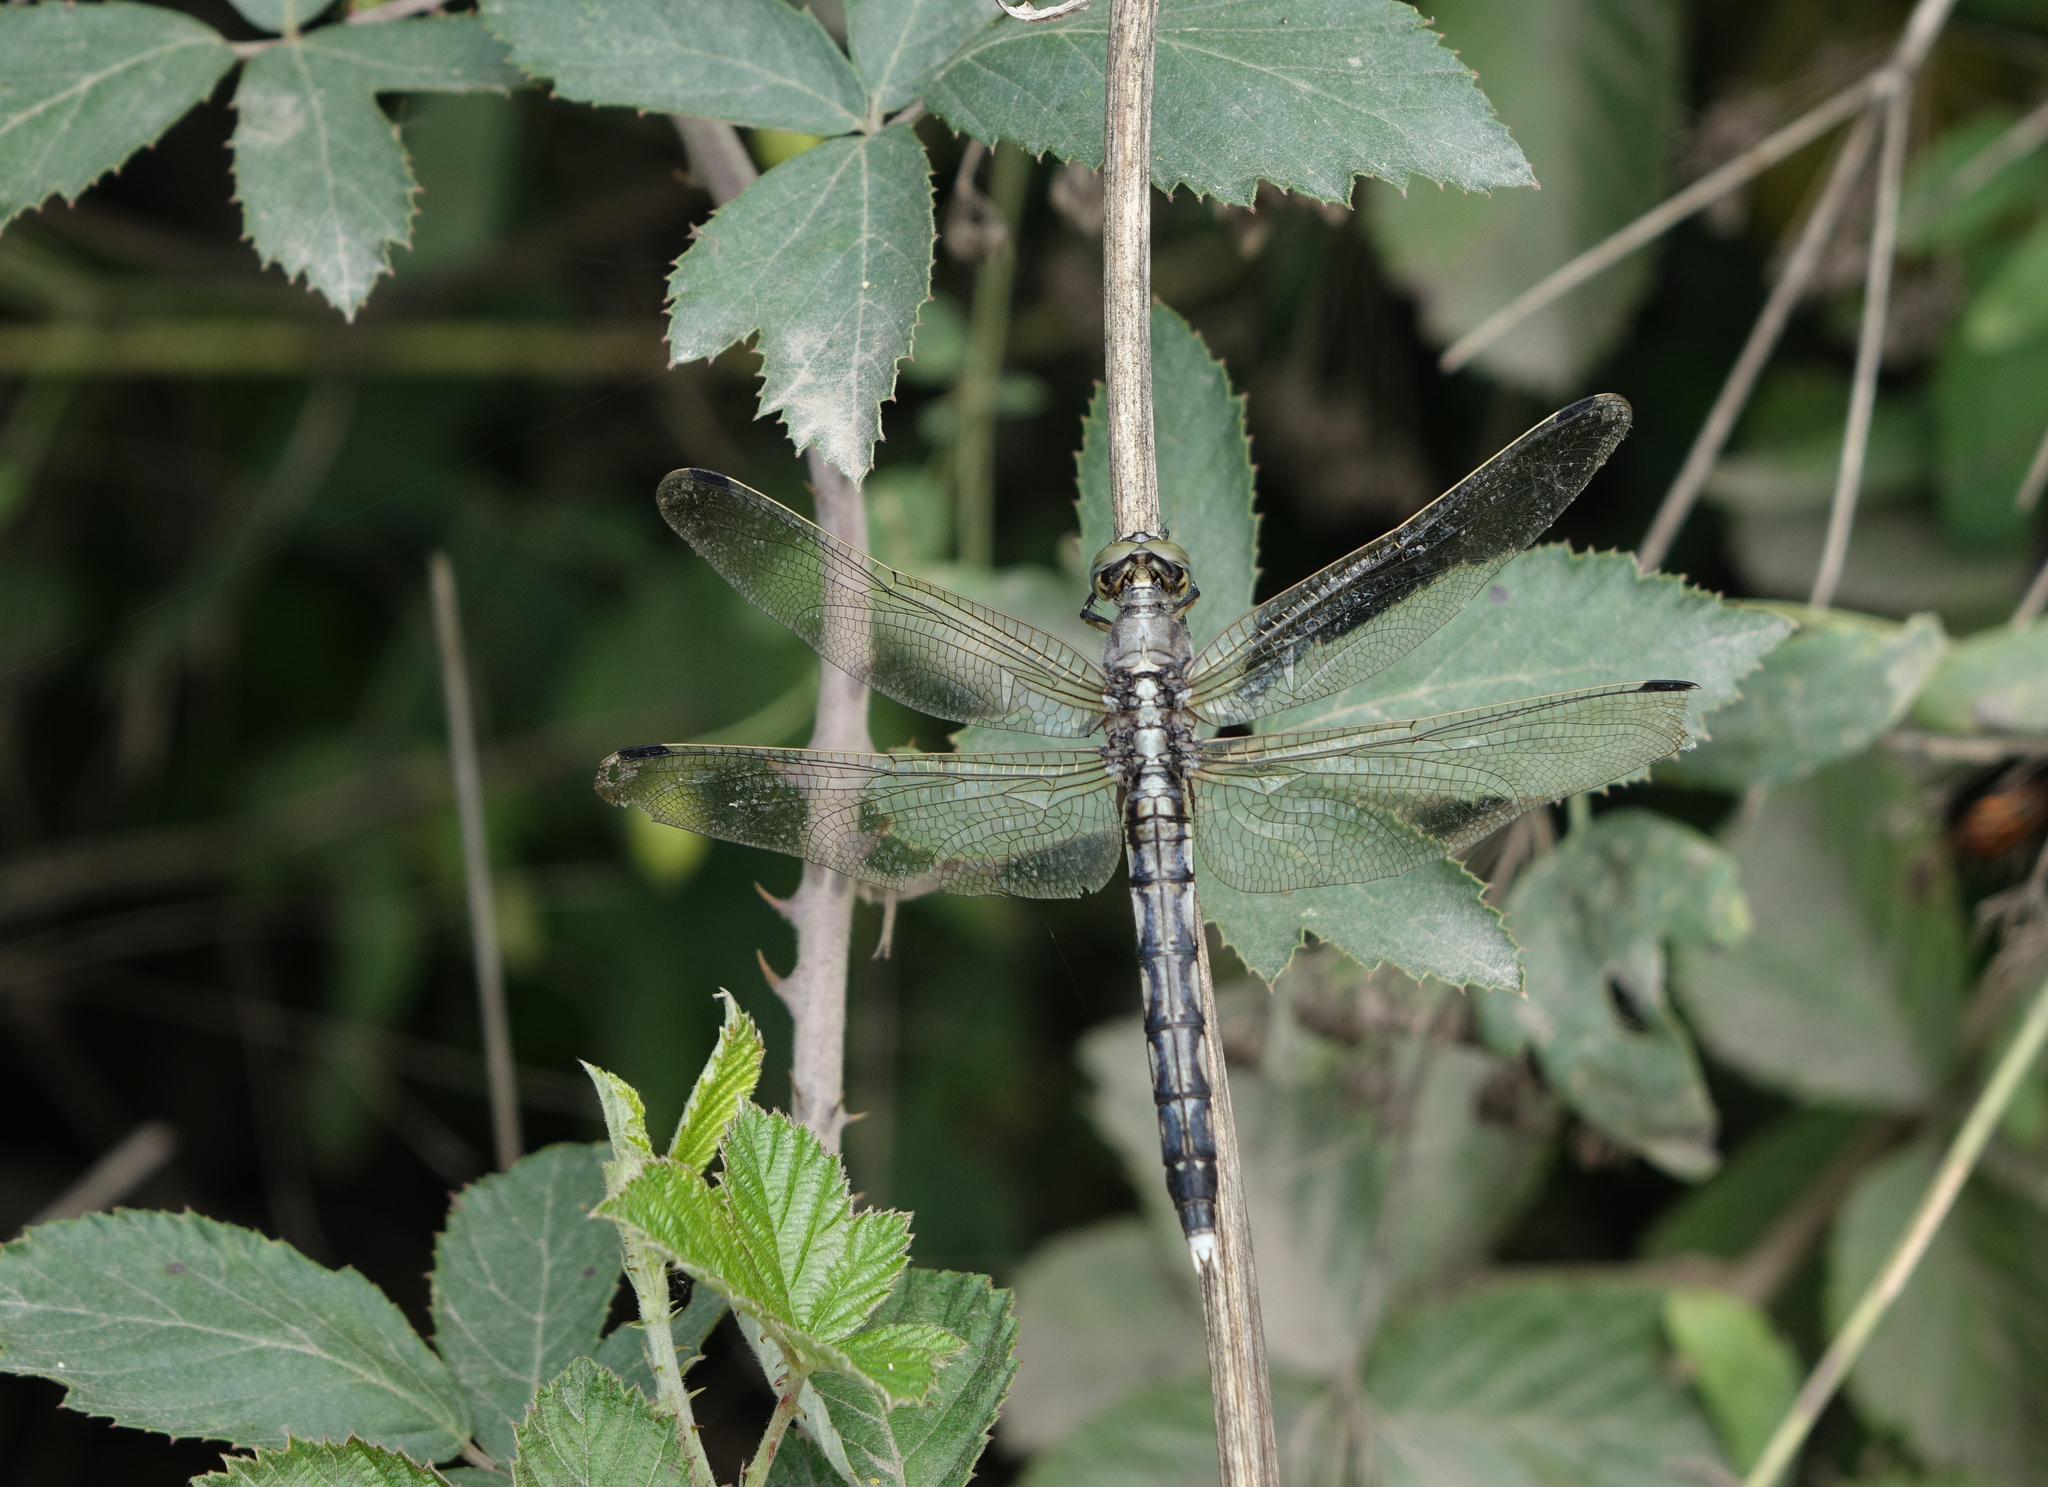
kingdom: Animalia
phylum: Arthropoda
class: Insecta
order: Odonata
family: Libellulidae
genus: Orthetrum
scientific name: Orthetrum albistylum
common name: White-tailed skimmer
